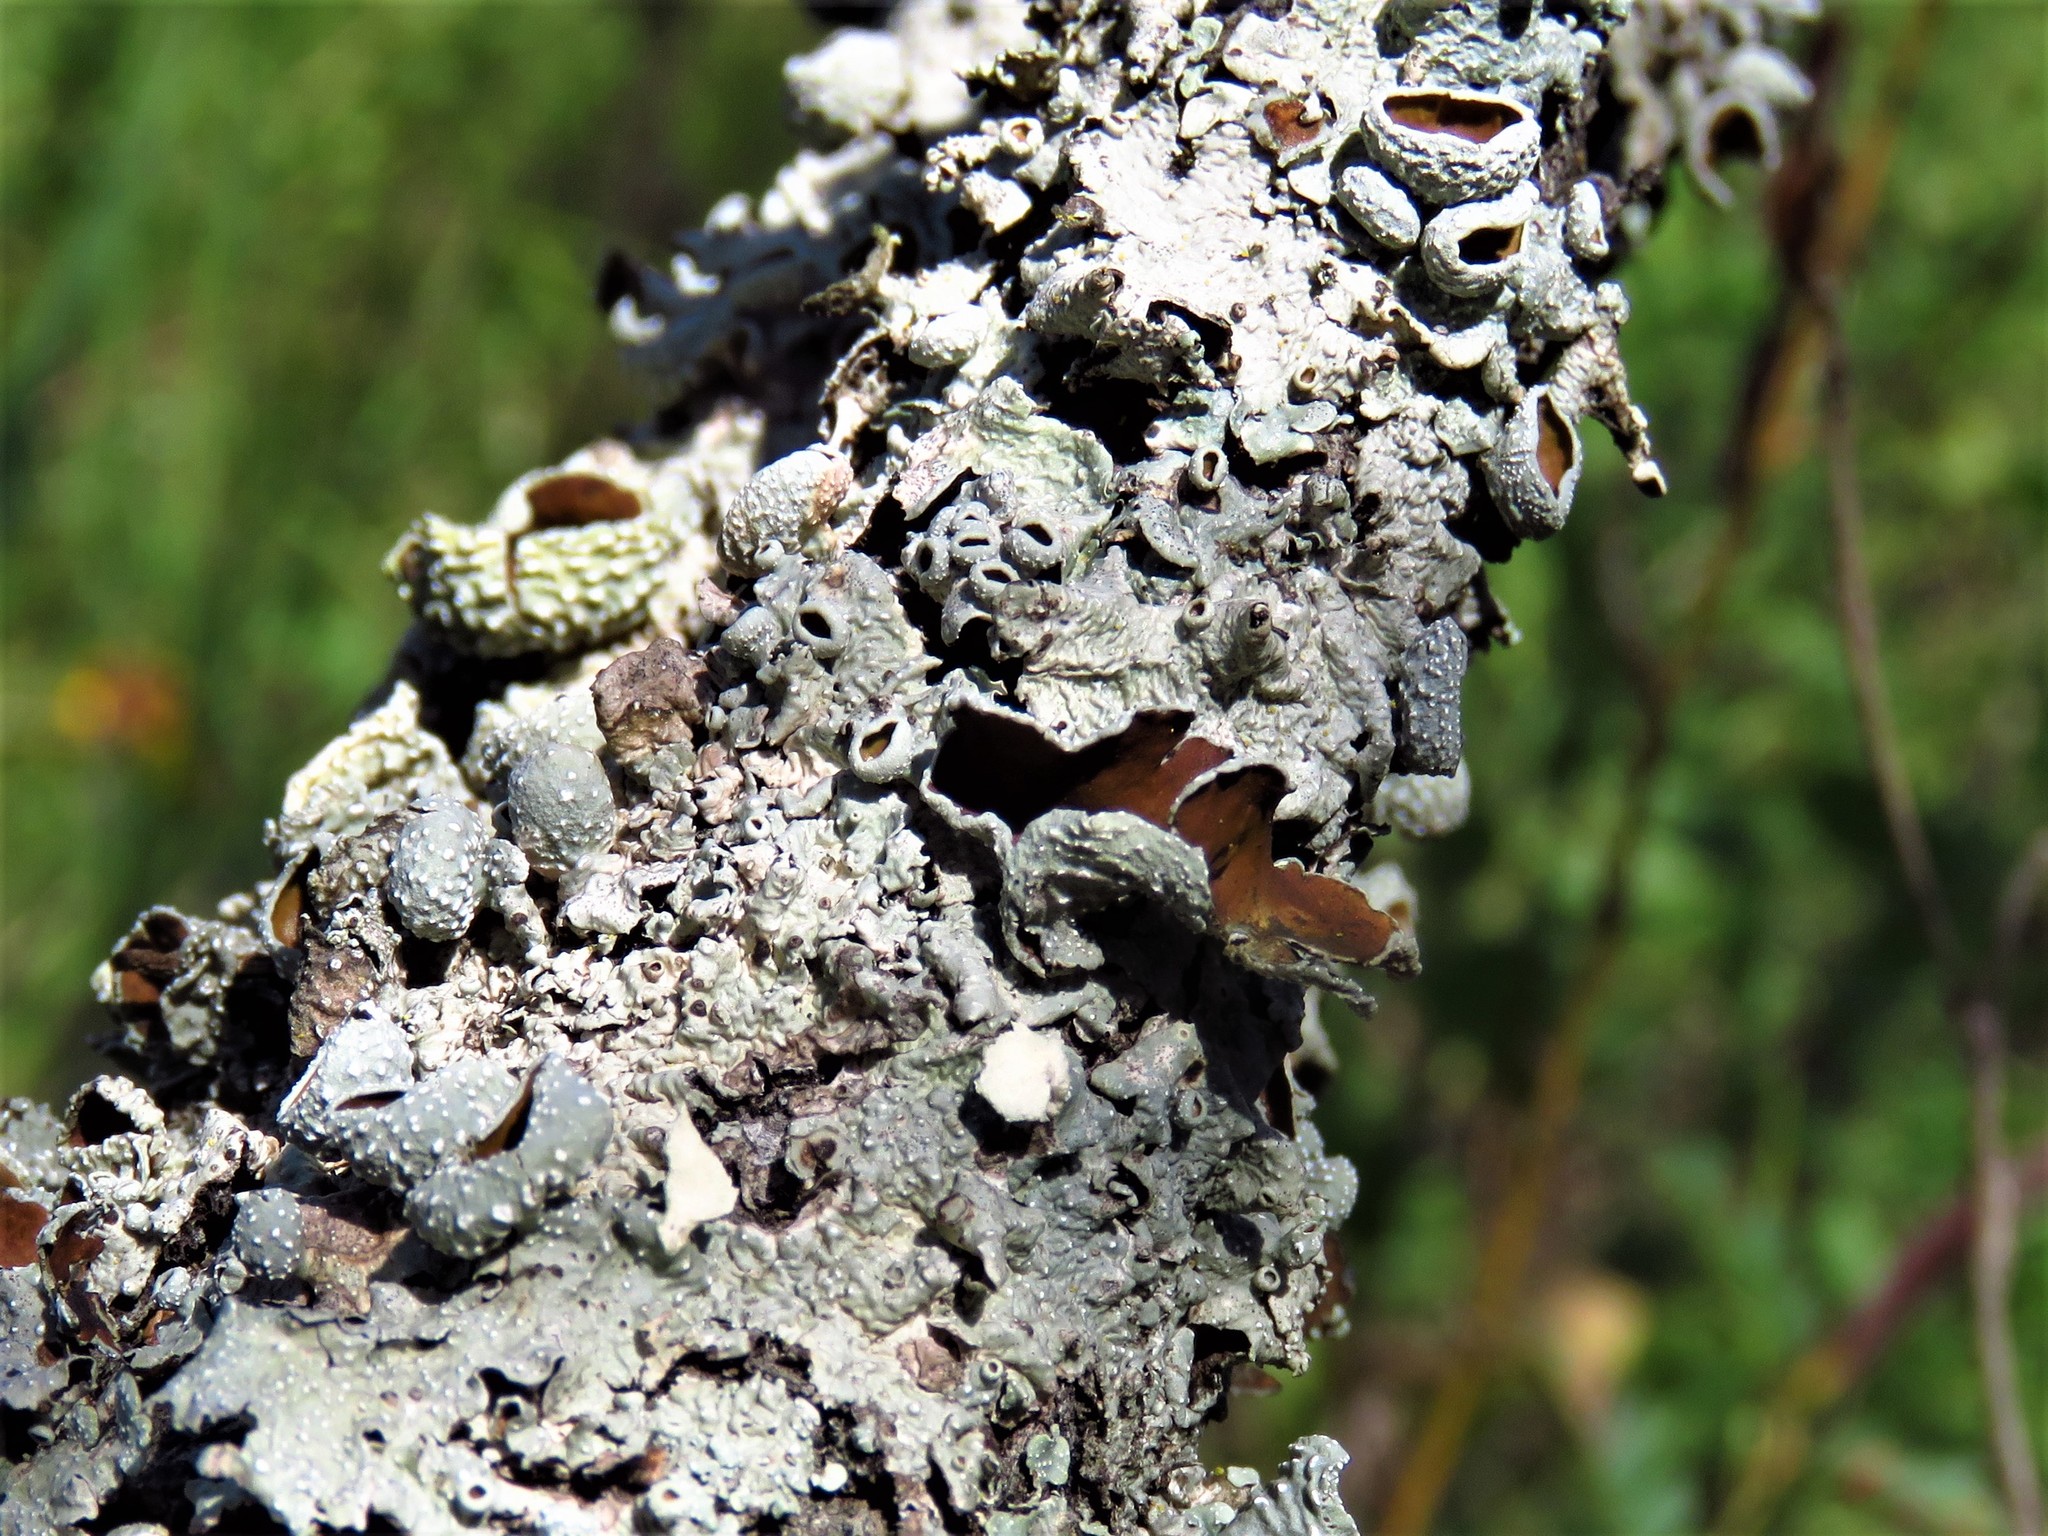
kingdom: Fungi
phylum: Ascomycota
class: Lecanoromycetes
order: Caliciales
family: Physciaceae
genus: Physcia
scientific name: Physcia aipolia
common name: Hoary rosette lichen
